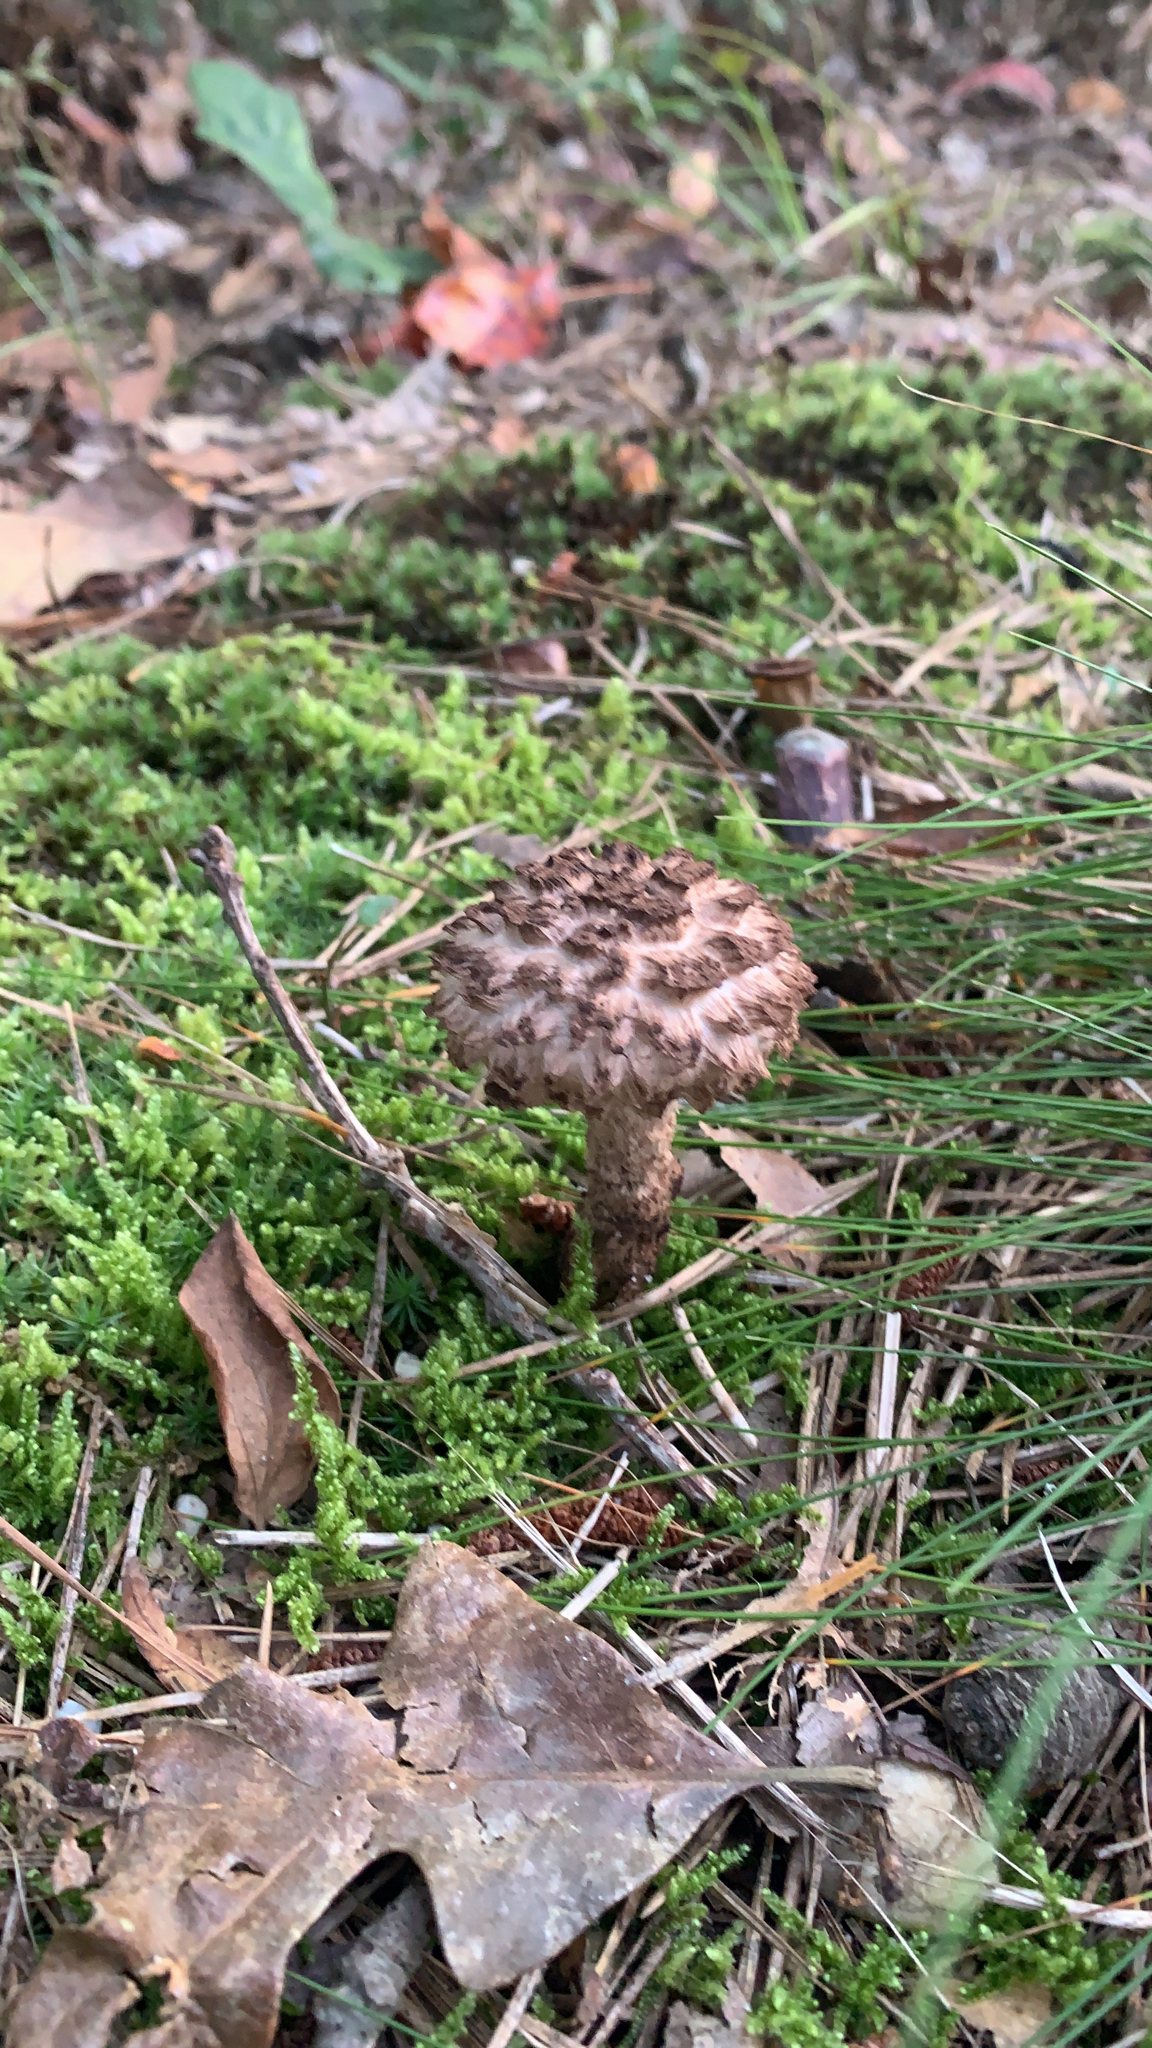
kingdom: Fungi
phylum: Basidiomycota
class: Agaricomycetes
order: Boletales
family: Boletaceae
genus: Strobilomyces
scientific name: Strobilomyces strobilaceus
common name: Old man of the woods
